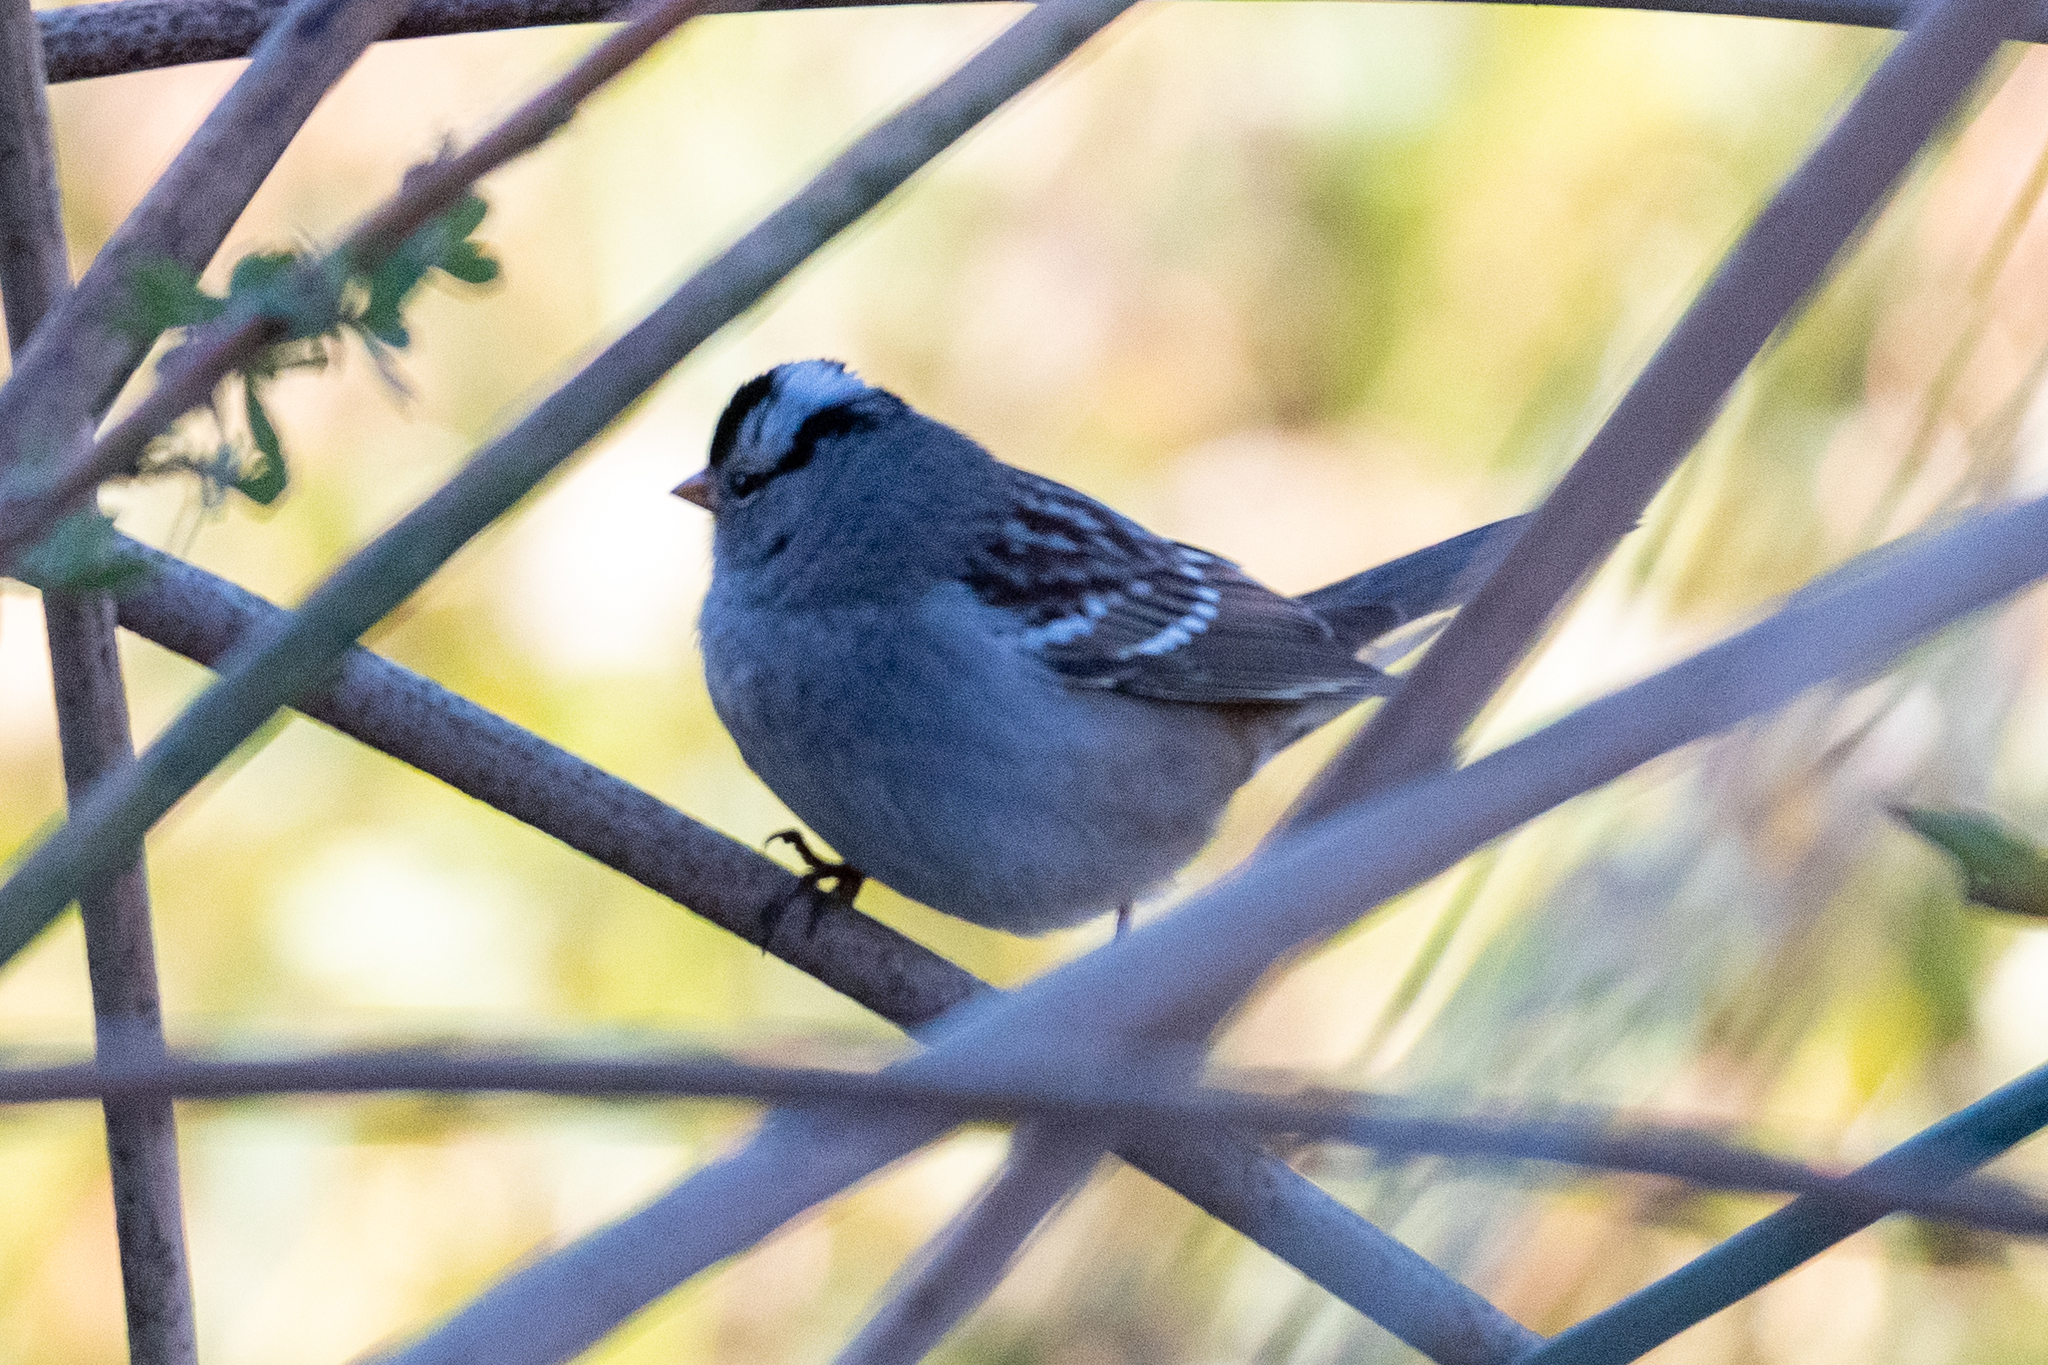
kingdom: Animalia
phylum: Chordata
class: Aves
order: Passeriformes
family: Passerellidae
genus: Zonotrichia
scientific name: Zonotrichia leucophrys
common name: White-crowned sparrow
